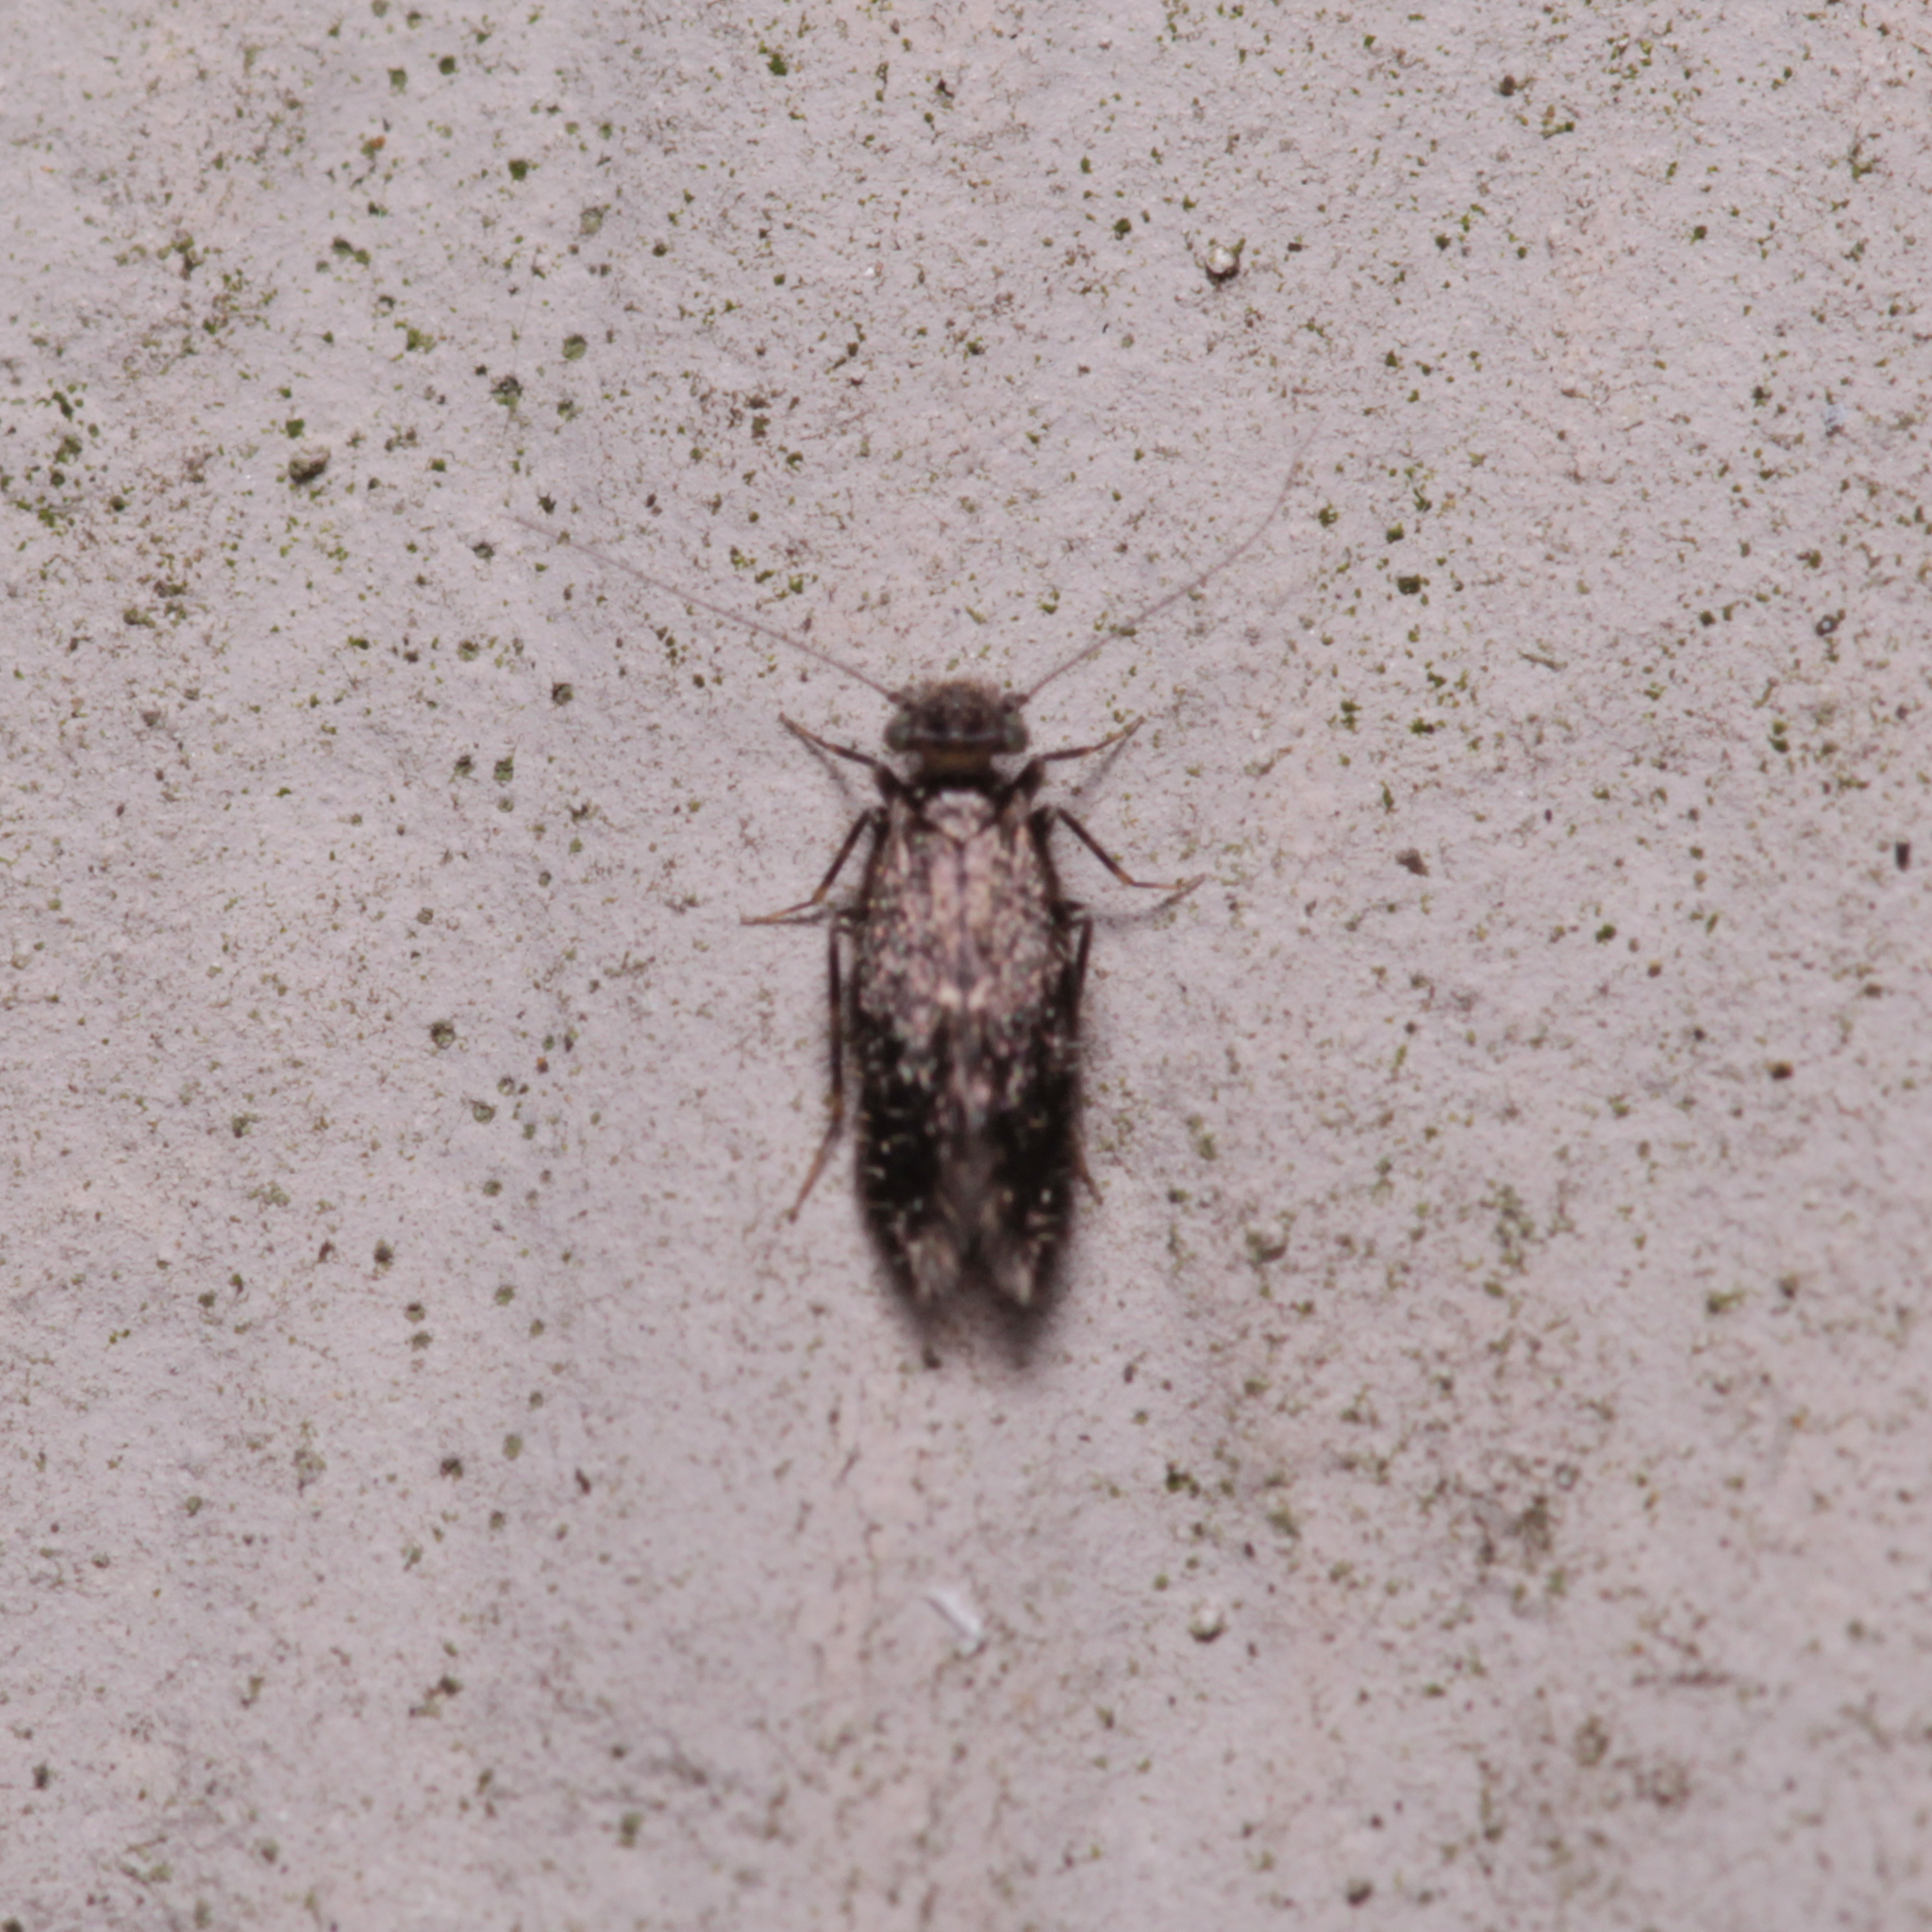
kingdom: Animalia
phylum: Arthropoda
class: Insecta
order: Psocodea
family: Lepidopsocidae
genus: Echmepteryx
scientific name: Echmepteryx hageni
